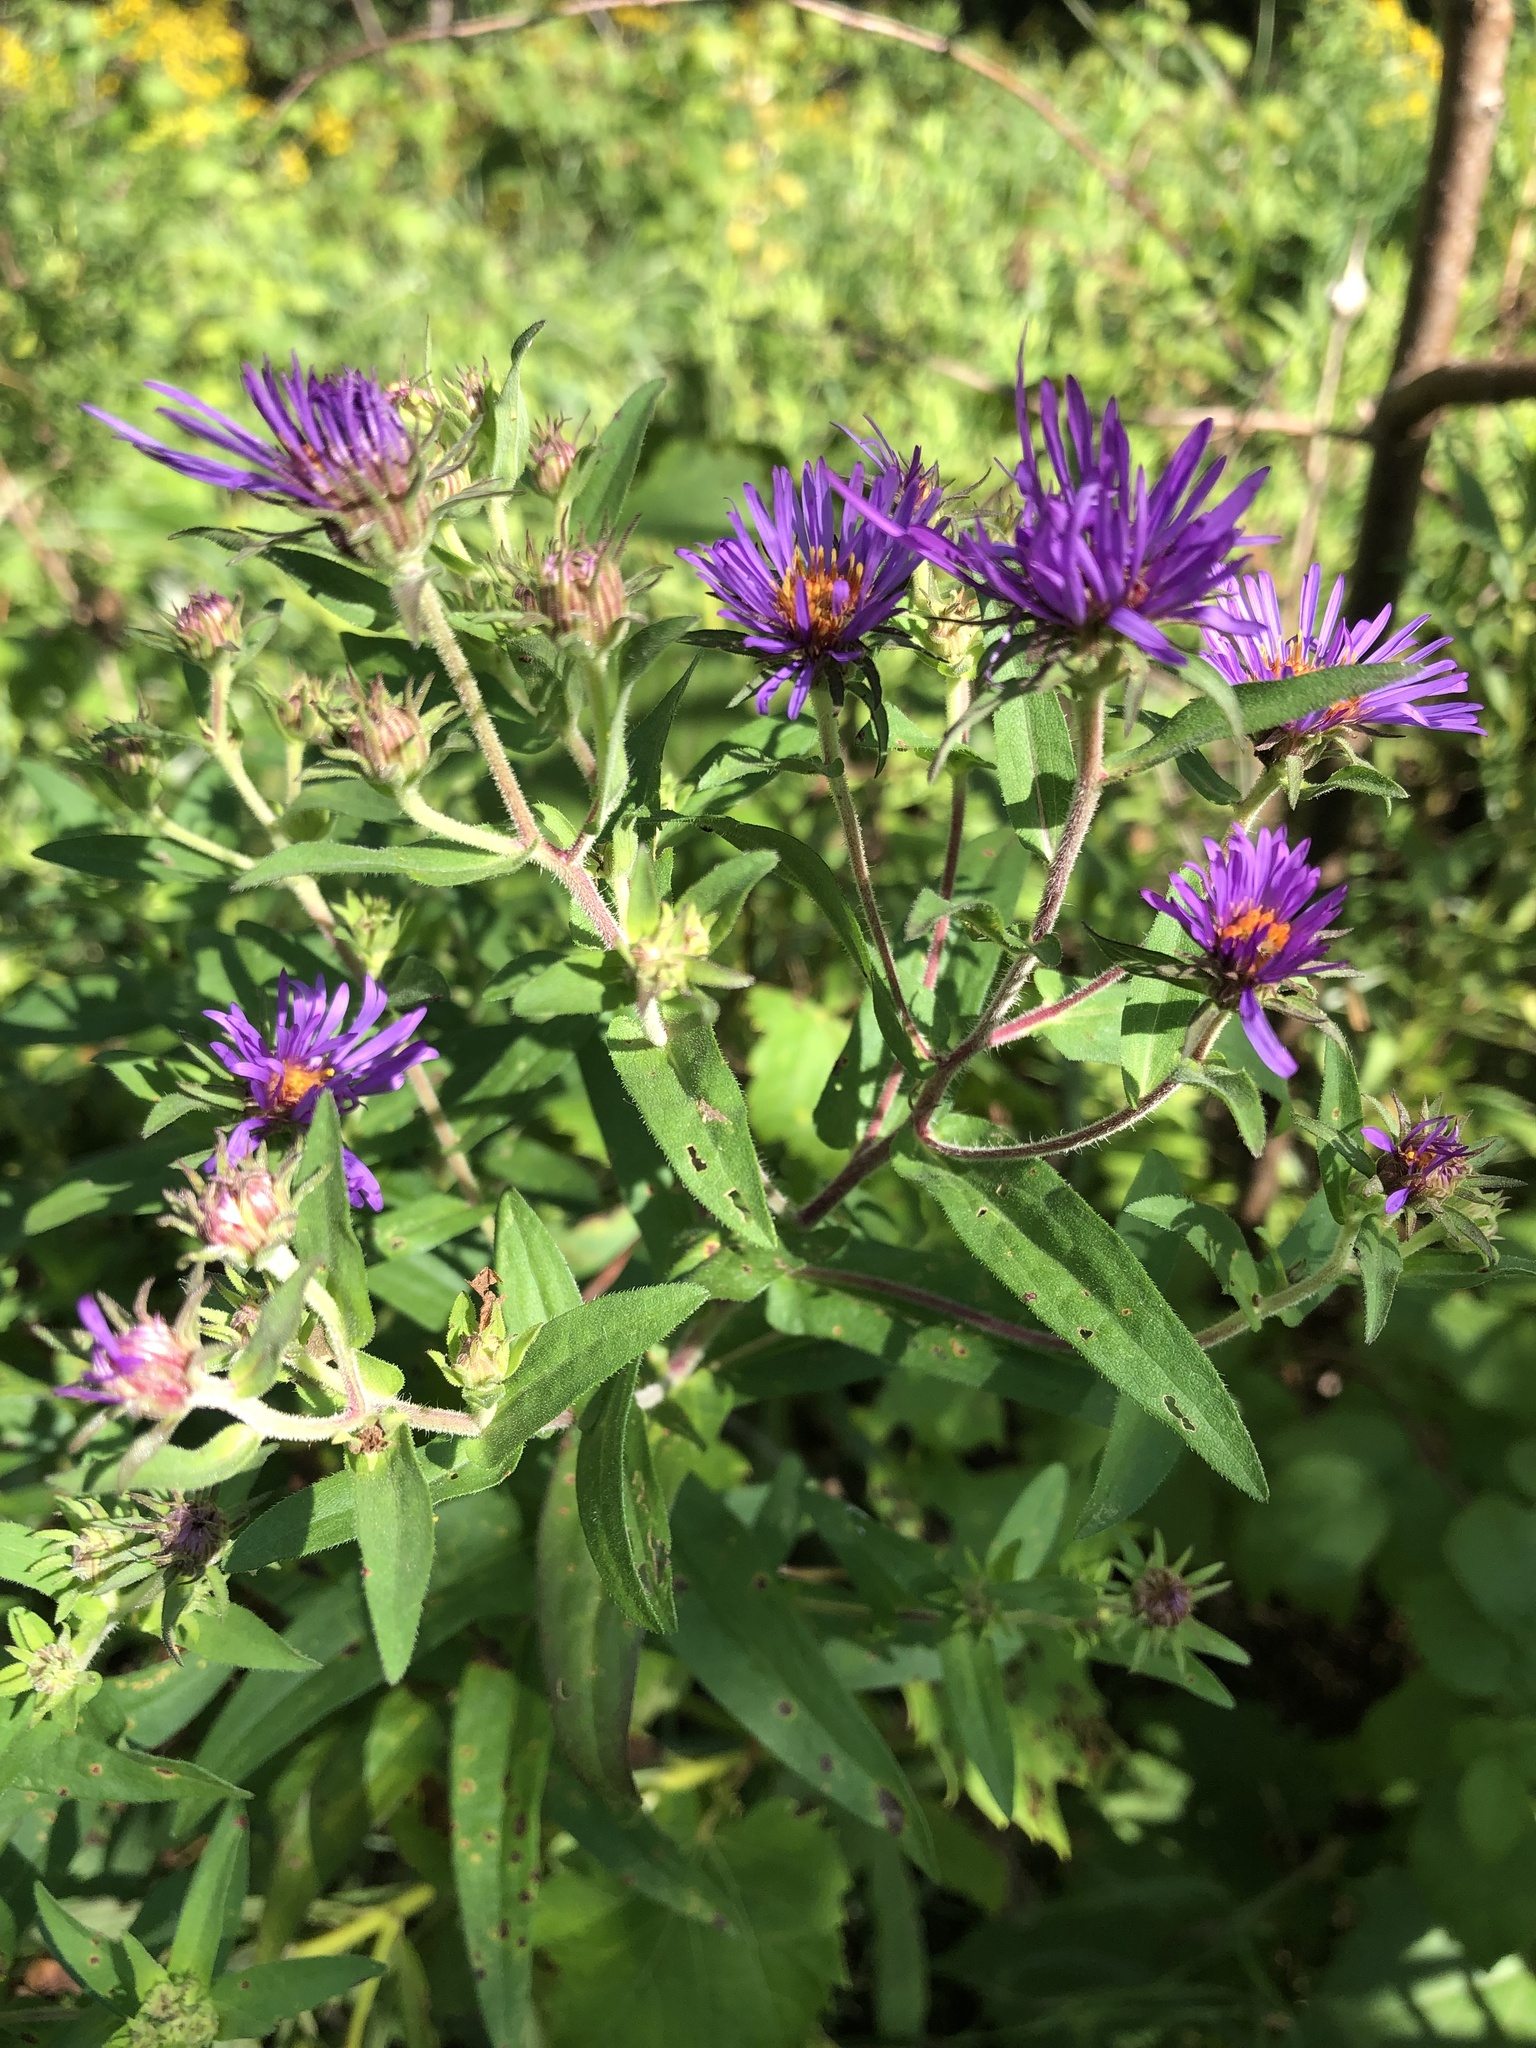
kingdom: Plantae
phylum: Tracheophyta
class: Magnoliopsida
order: Asterales
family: Asteraceae
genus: Symphyotrichum
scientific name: Symphyotrichum novae-angliae
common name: Michaelmas daisy
